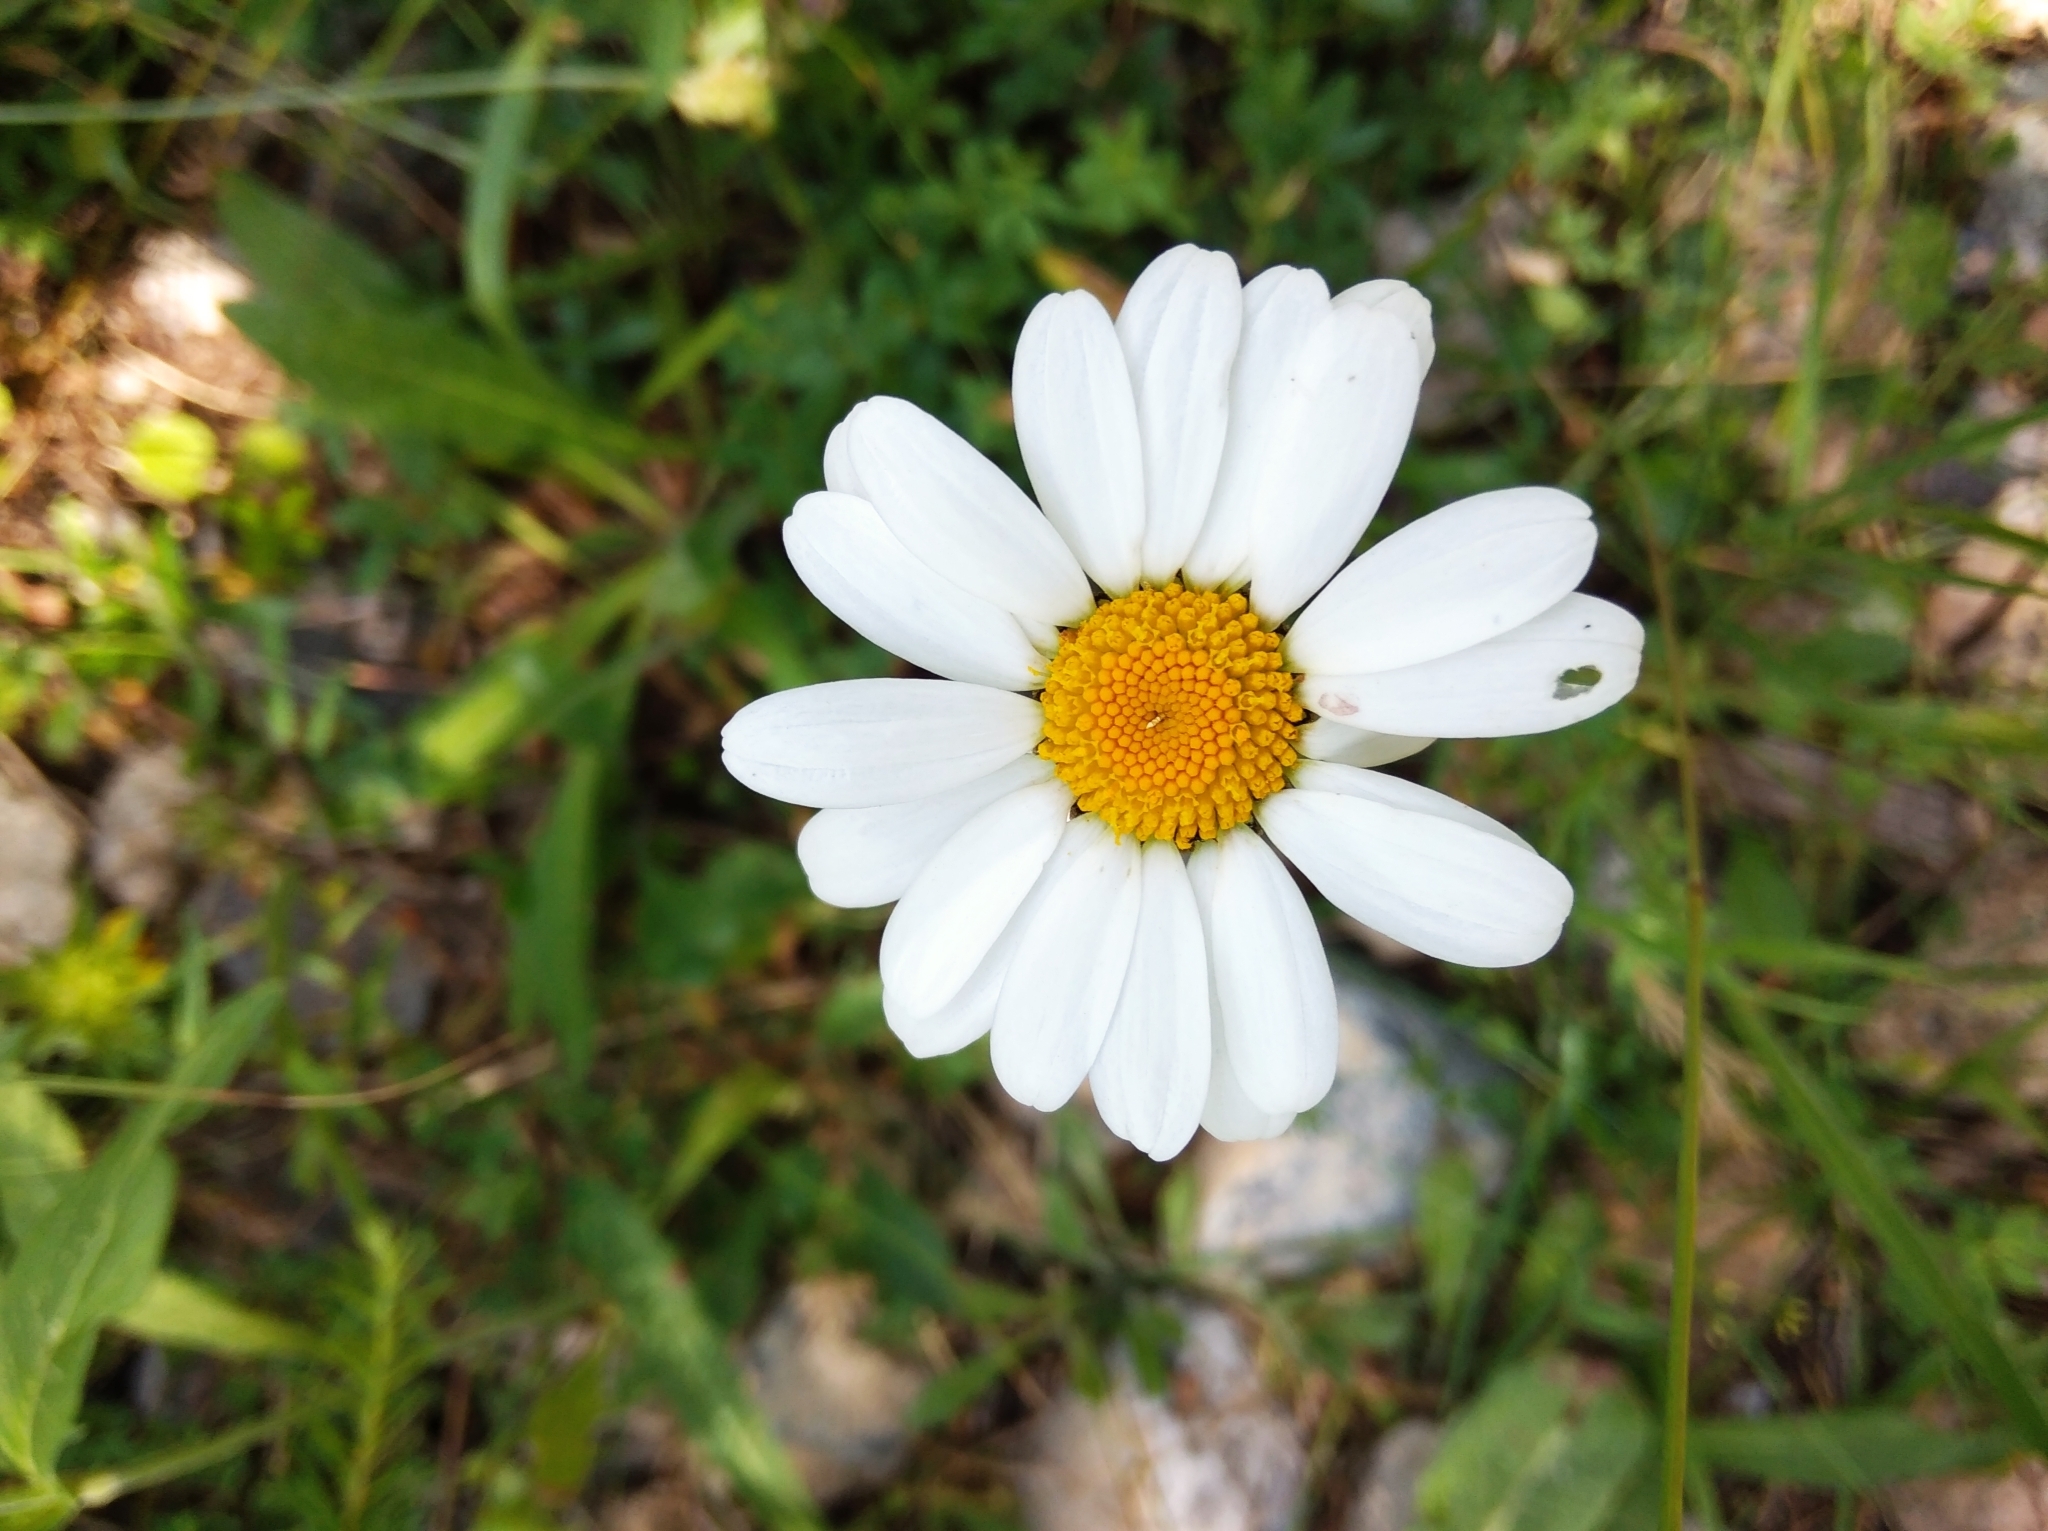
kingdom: Plantae
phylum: Tracheophyta
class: Magnoliopsida
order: Asterales
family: Asteraceae
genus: Leucanthemum
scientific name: Leucanthemum vulgare
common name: Oxeye daisy
